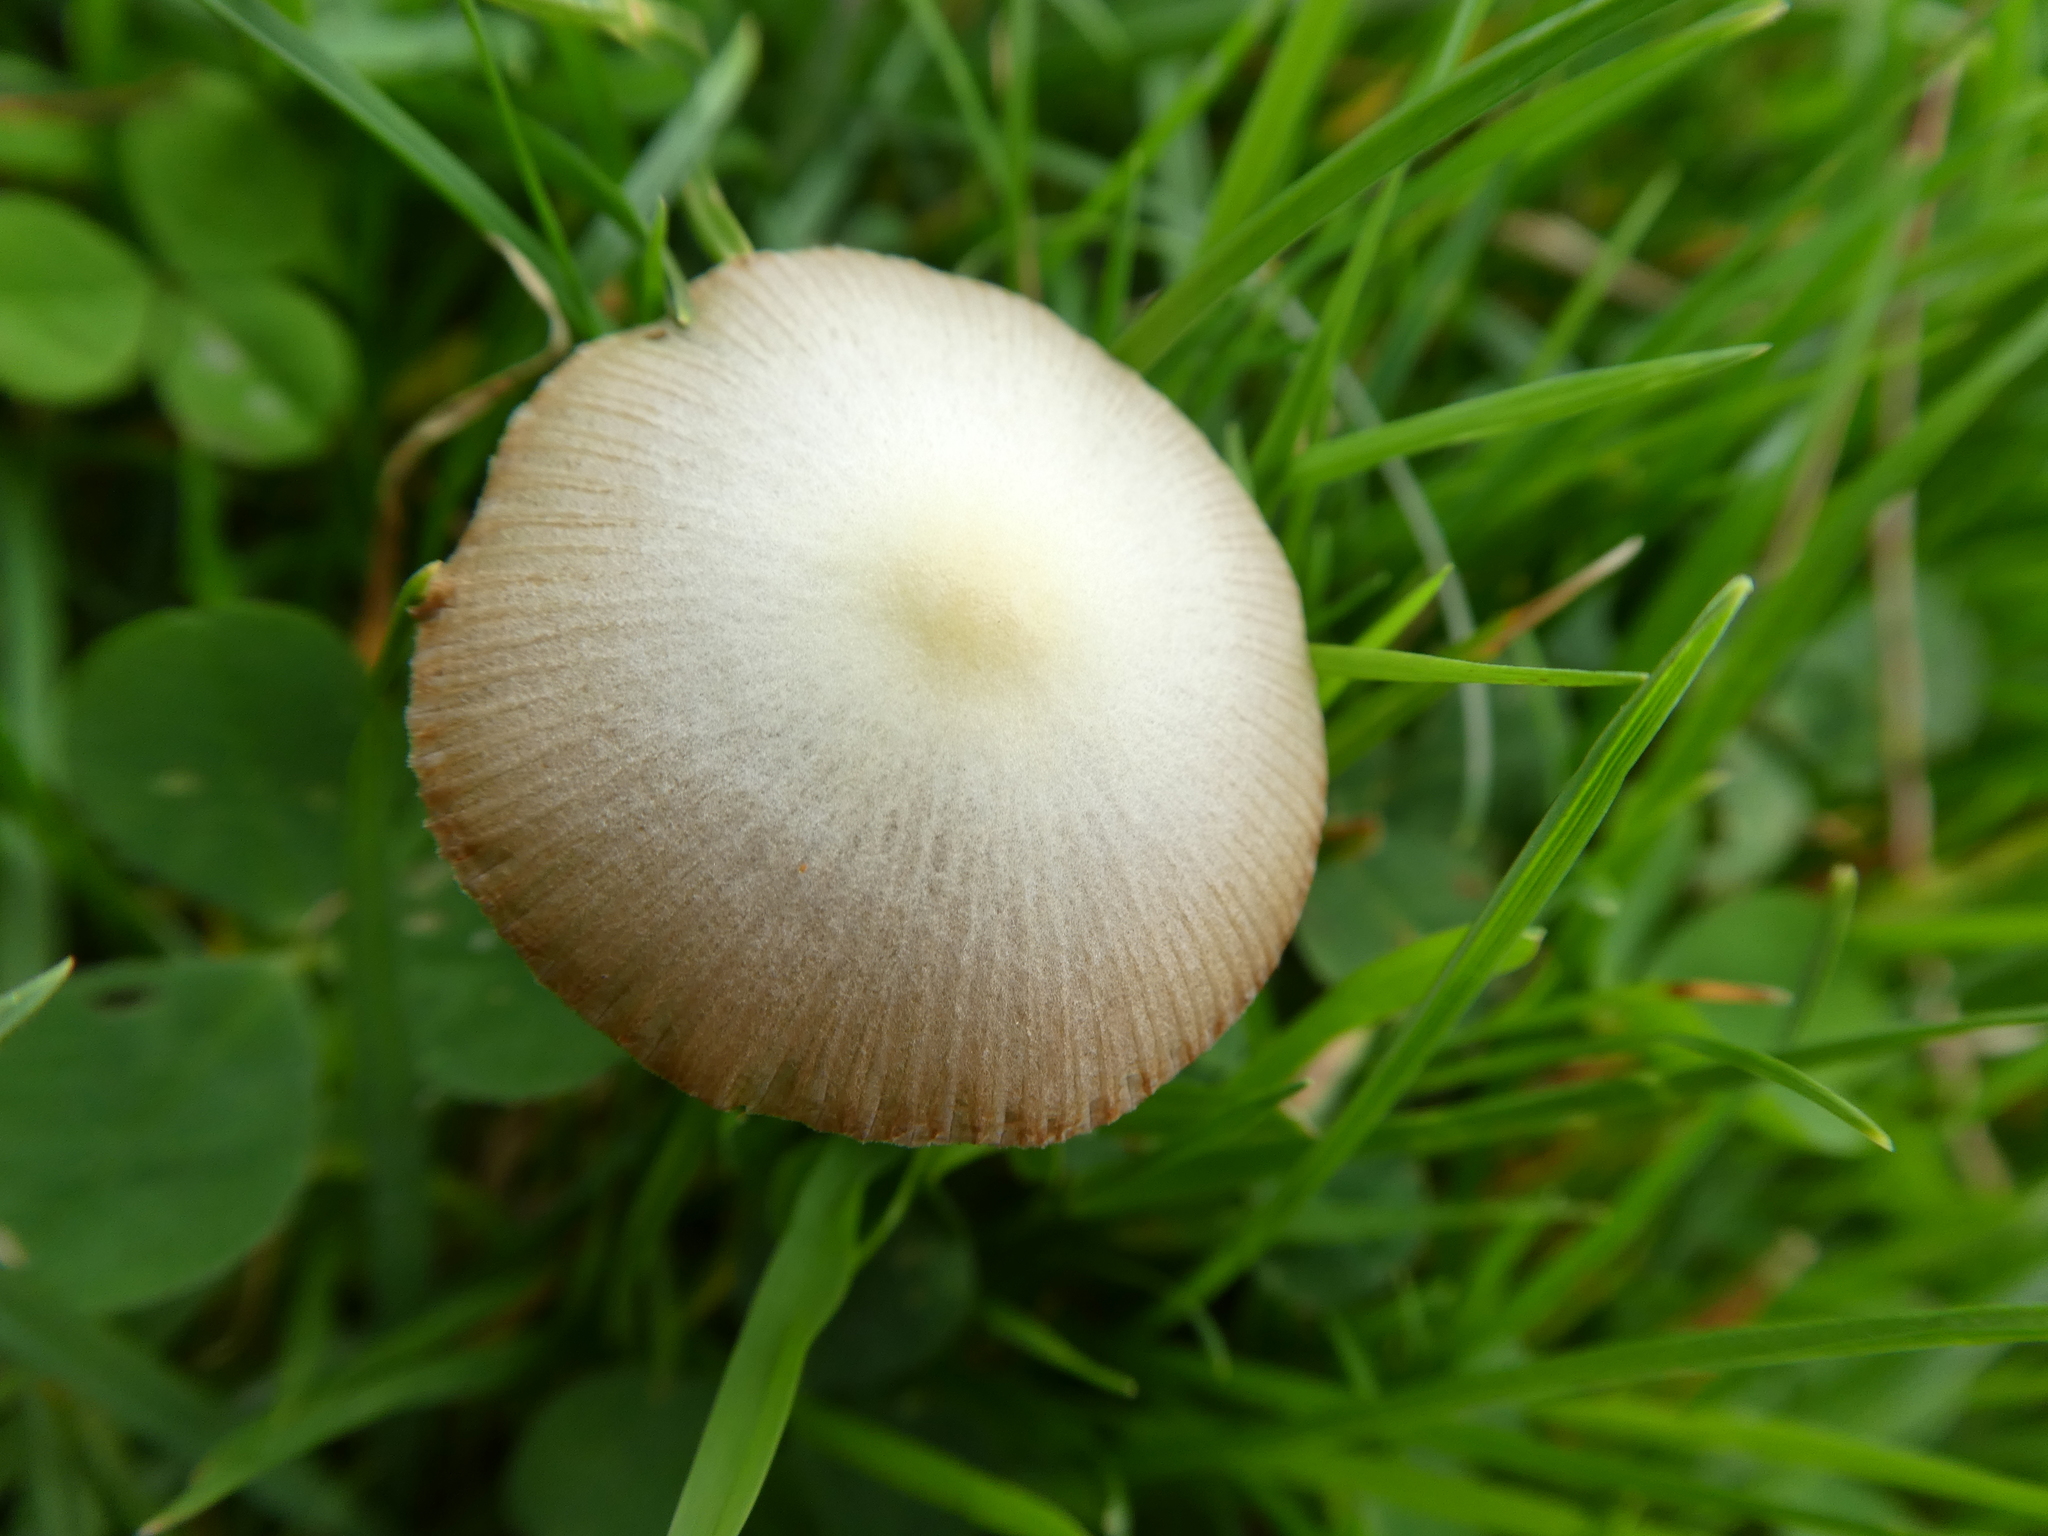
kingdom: Fungi
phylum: Basidiomycota
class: Agaricomycetes
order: Agaricales
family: Bolbitiaceae
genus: Bolbitius
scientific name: Bolbitius titubans
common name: Yellow fieldcap
